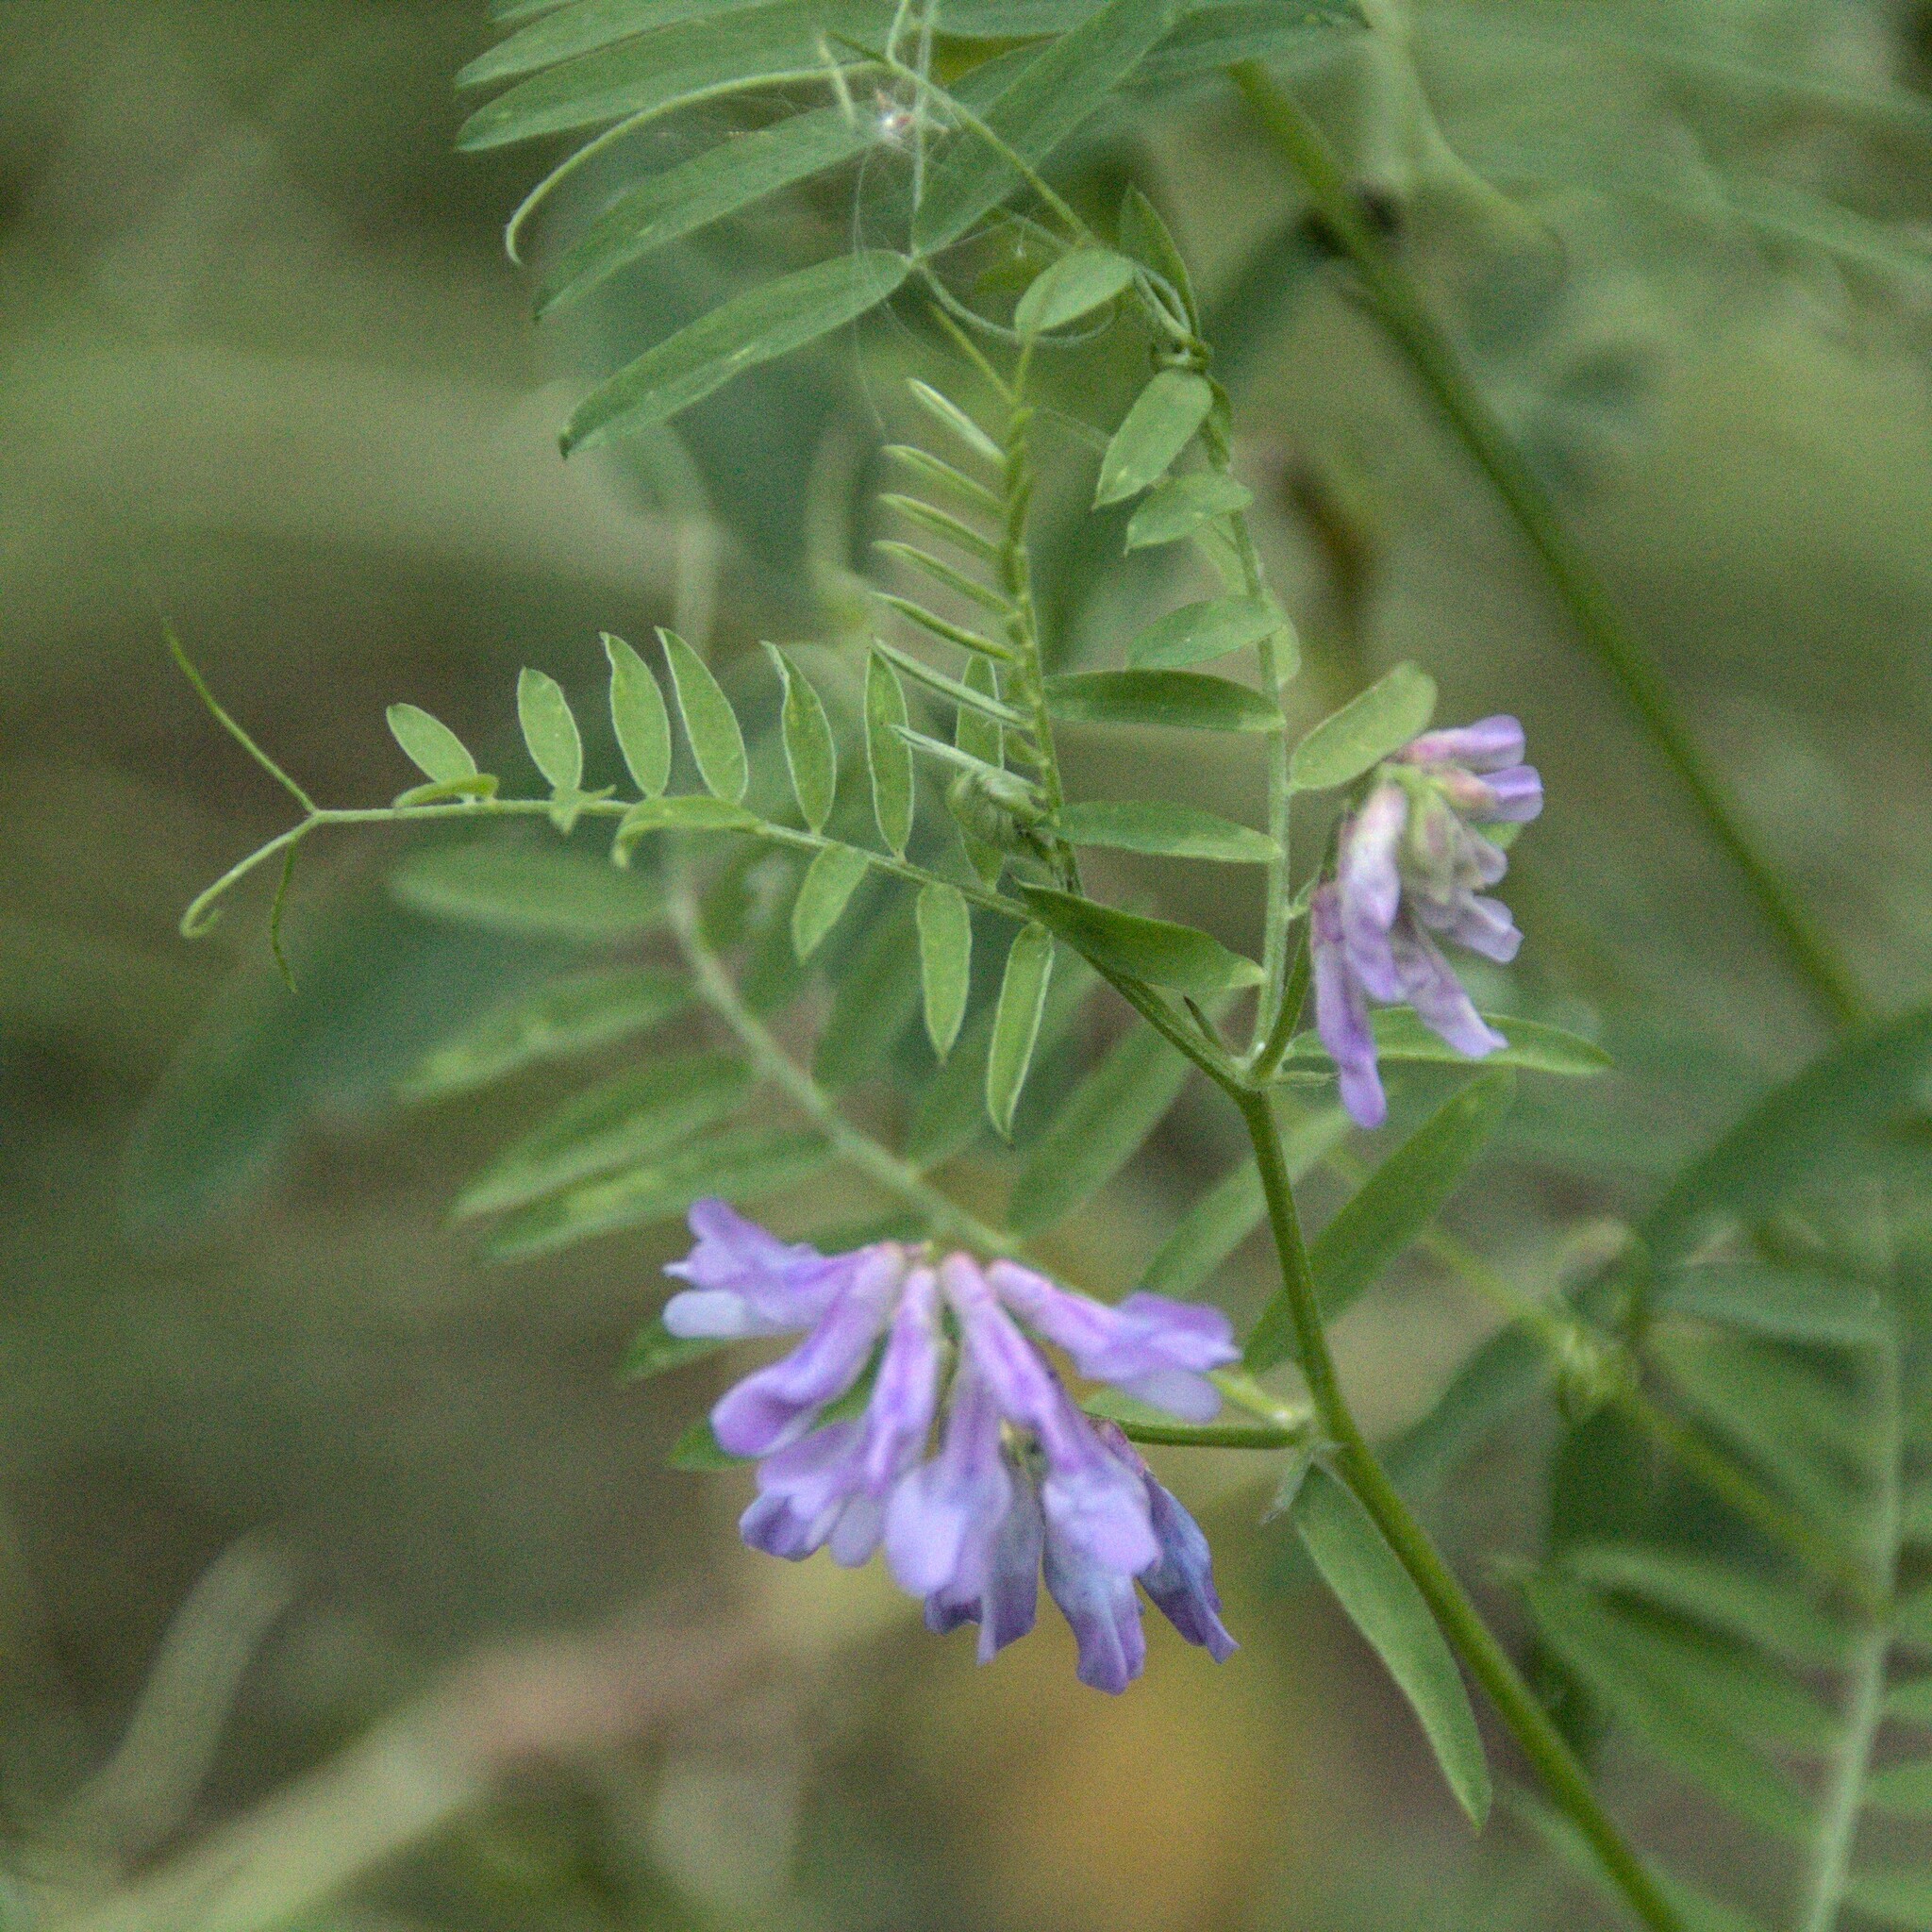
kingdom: Plantae
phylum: Tracheophyta
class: Magnoliopsida
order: Fabales
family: Fabaceae
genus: Vicia
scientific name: Vicia cracca
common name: Bird vetch
